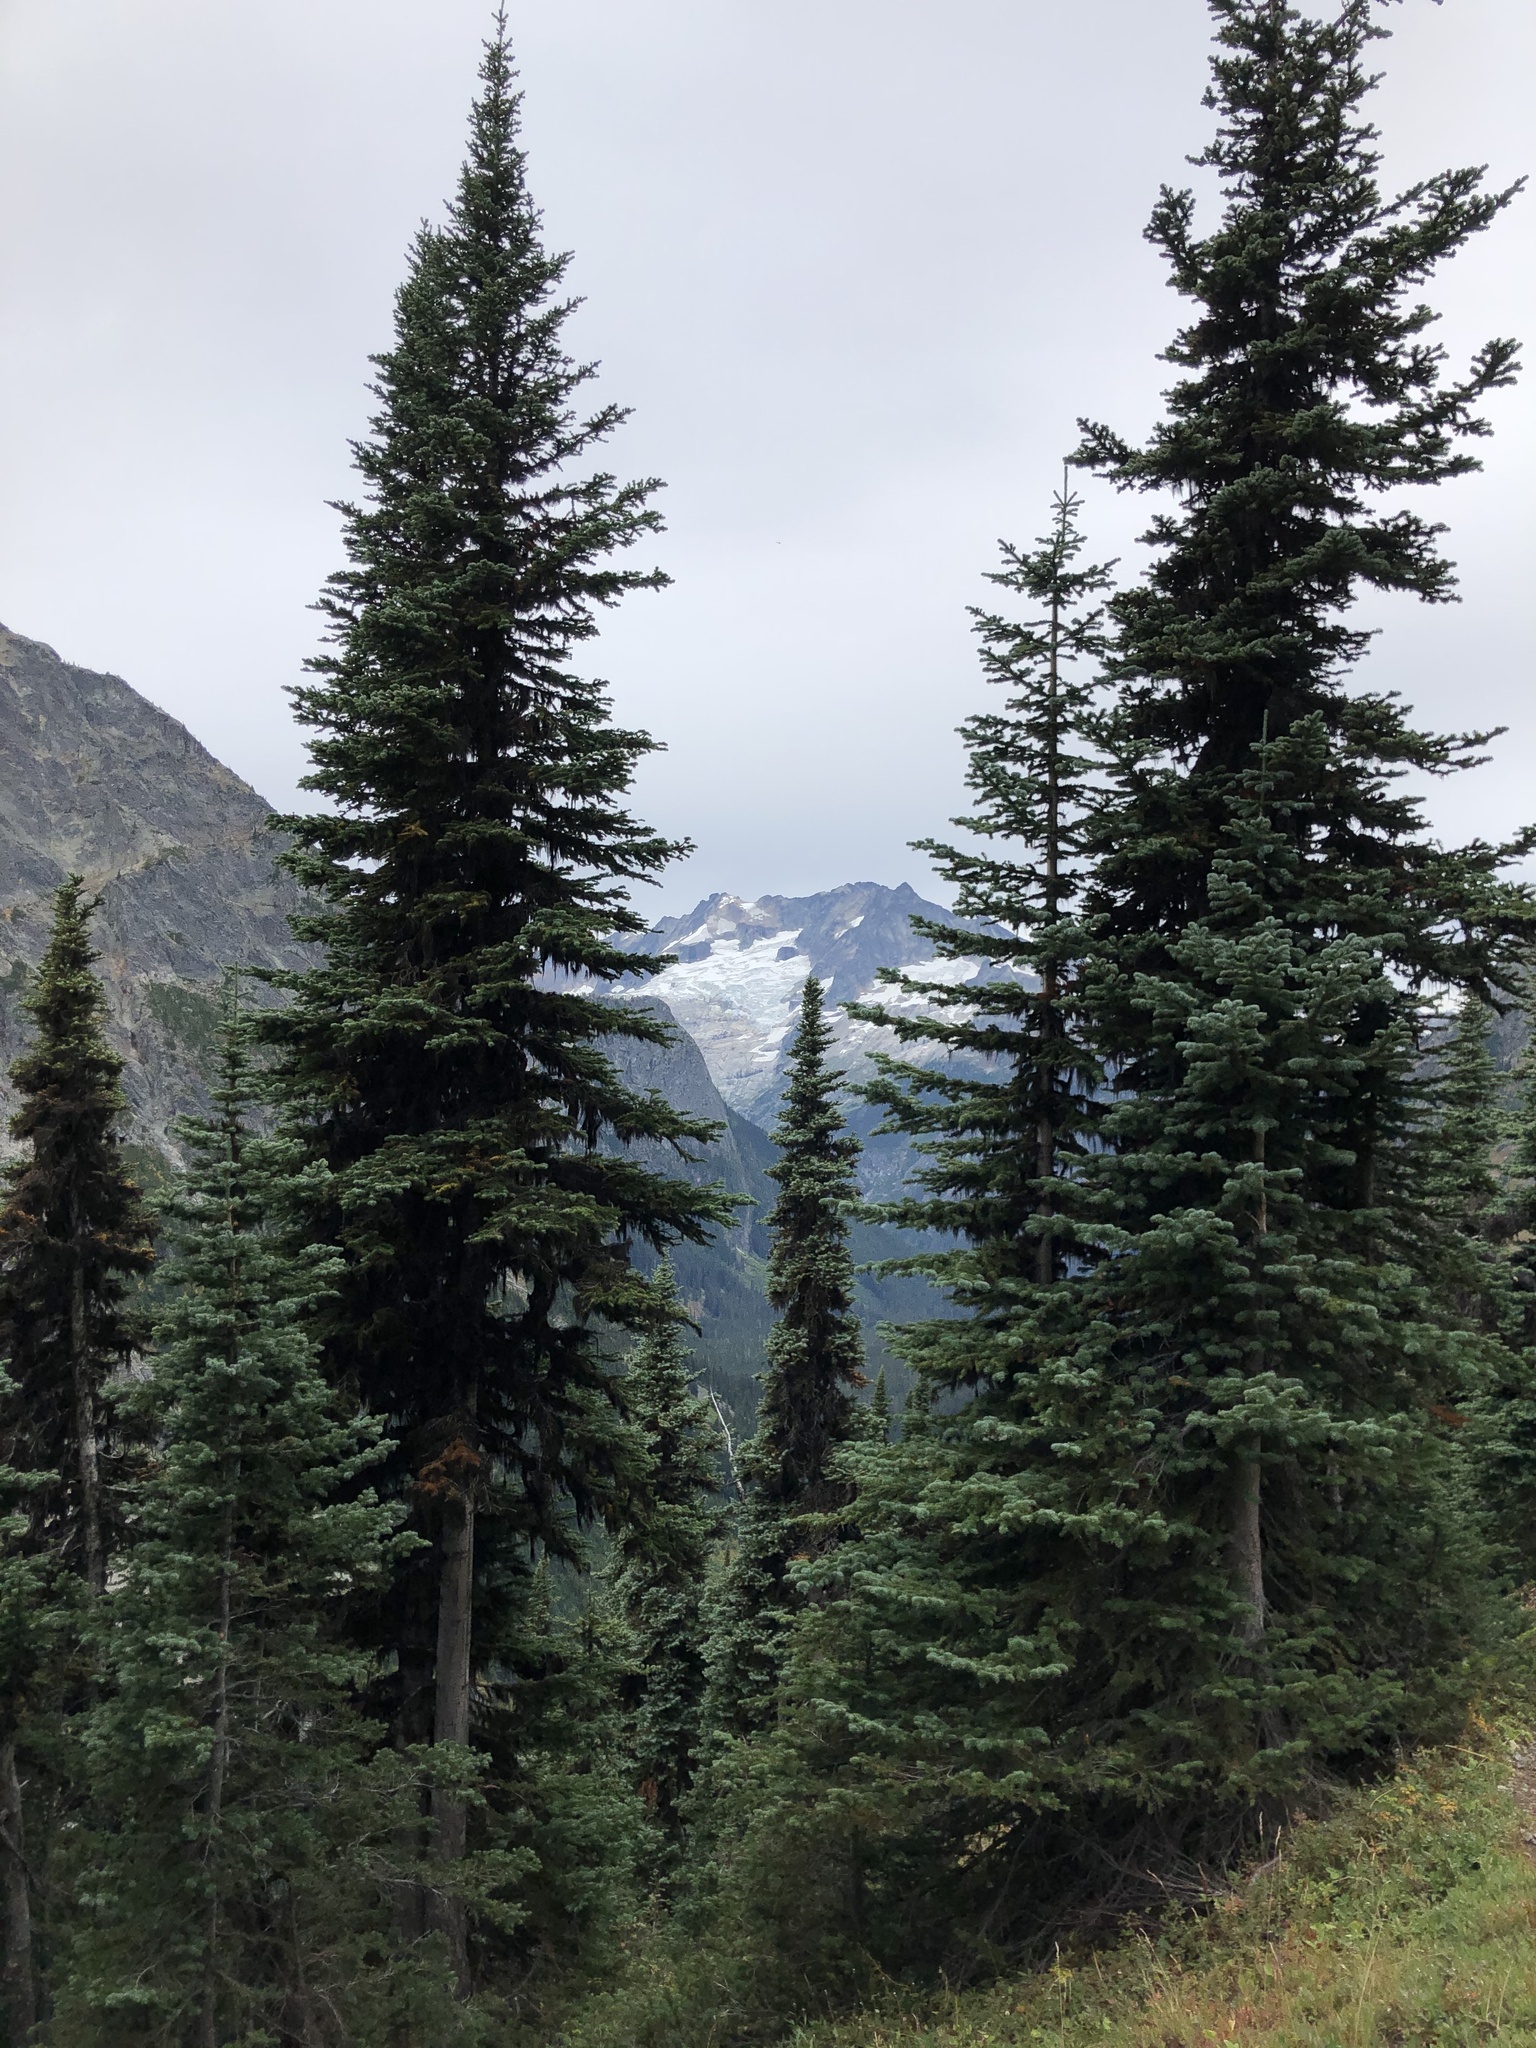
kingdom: Plantae
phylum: Tracheophyta
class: Pinopsida
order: Pinales
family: Pinaceae
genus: Abies
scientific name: Abies lasiocarpa
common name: Subalpine fir
